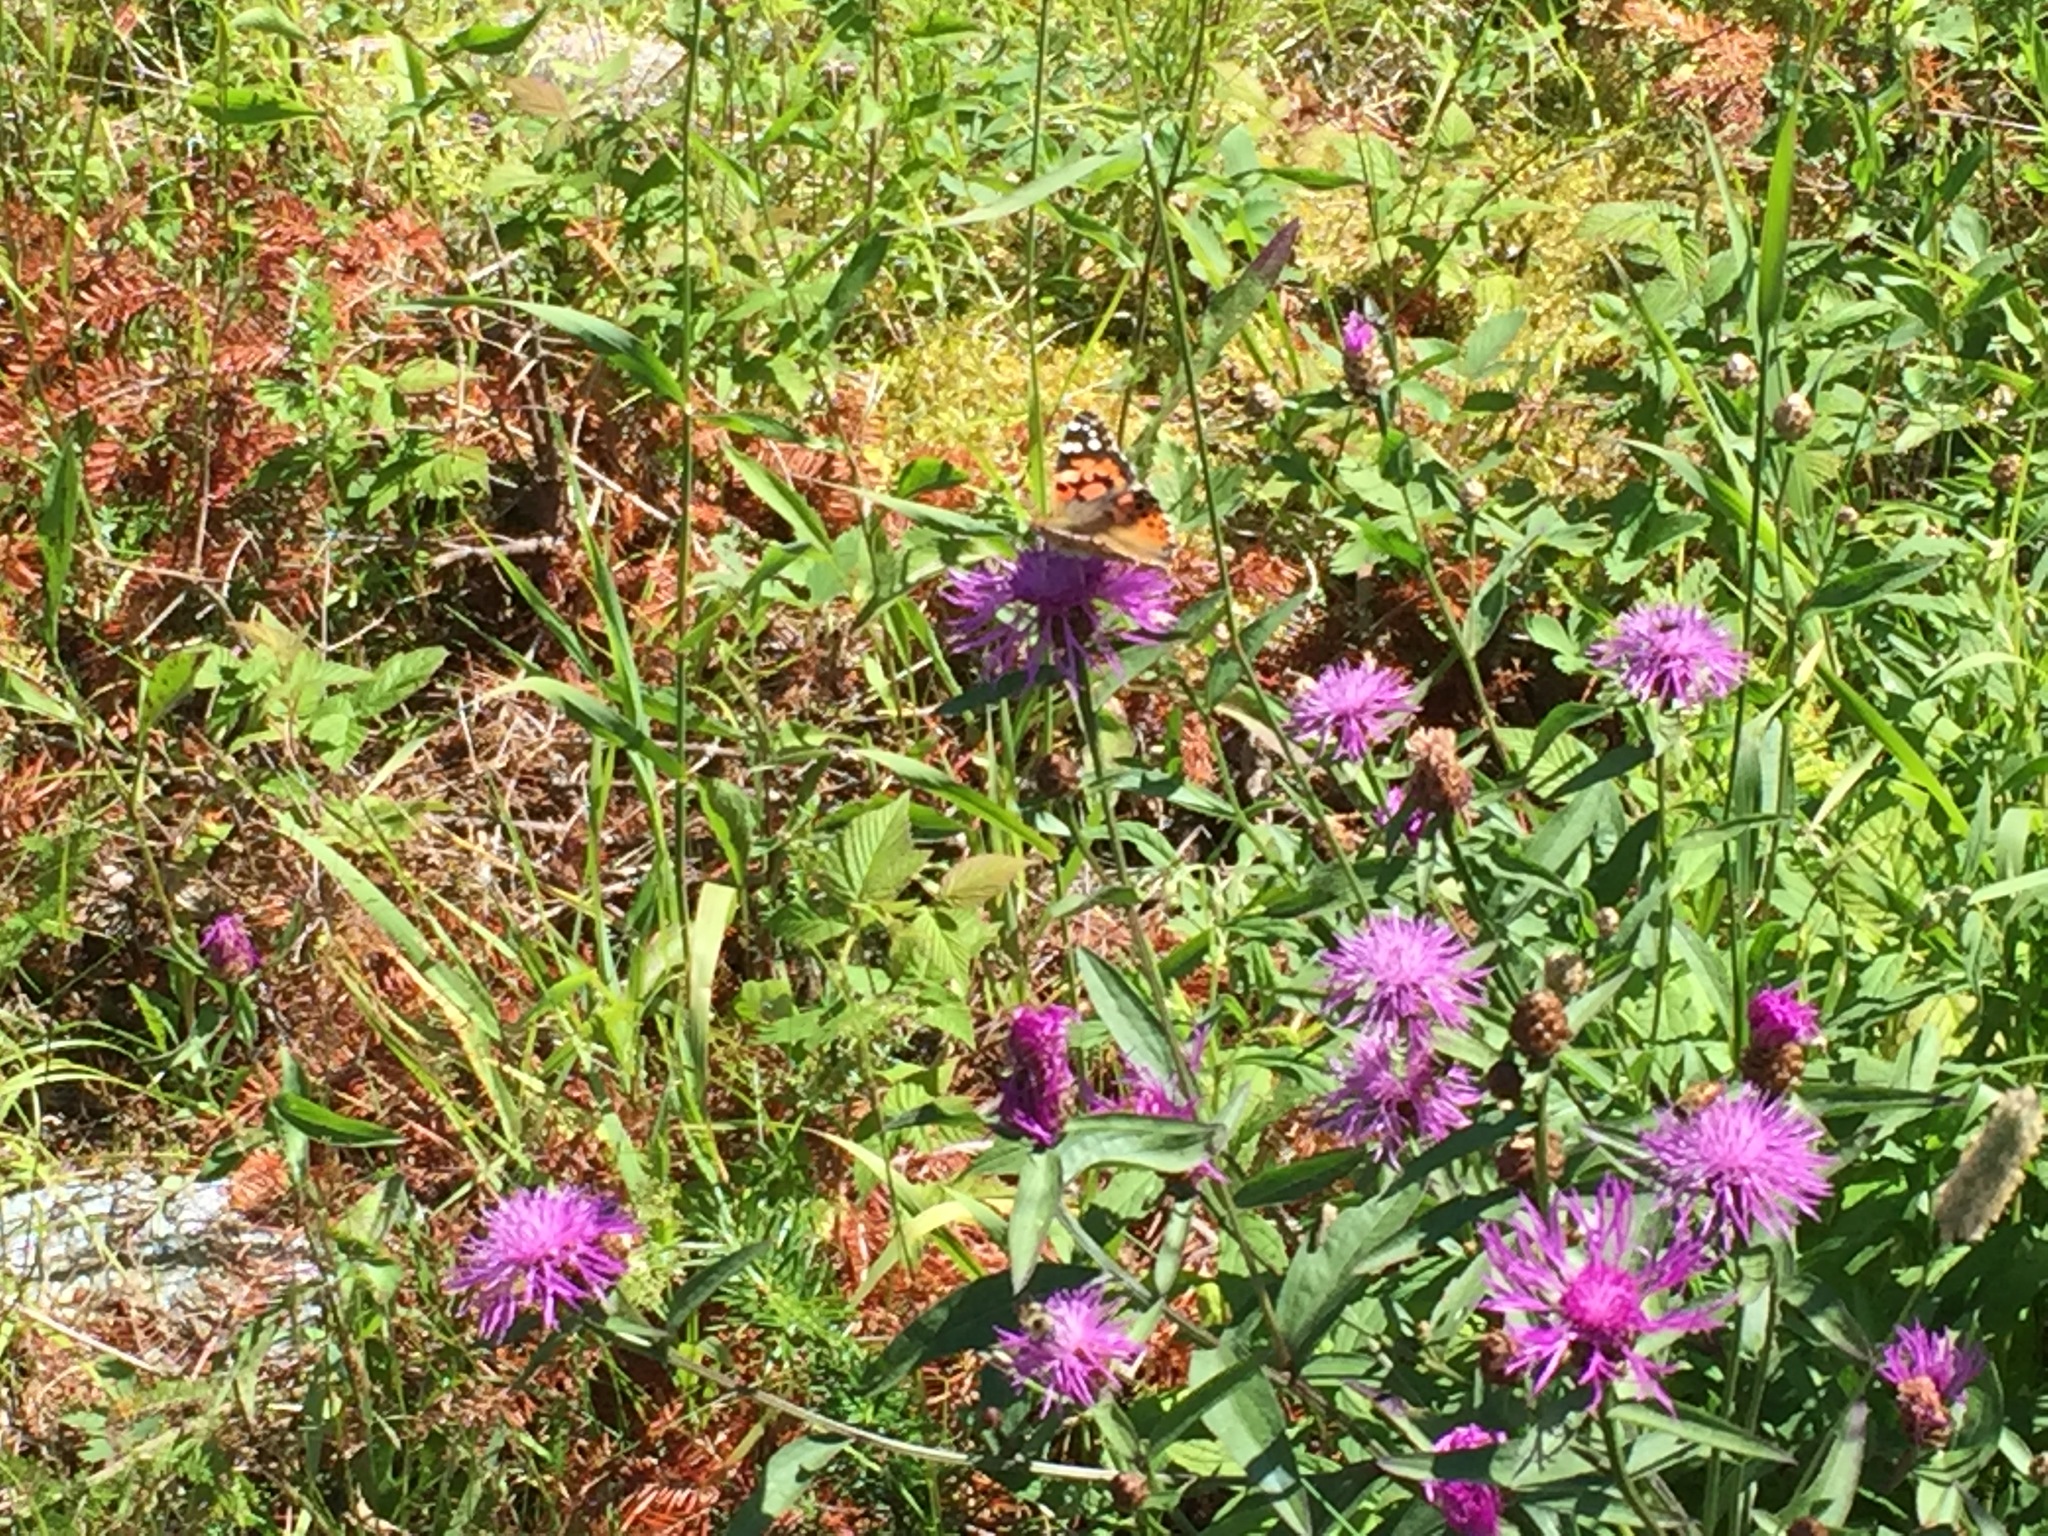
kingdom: Animalia
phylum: Arthropoda
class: Insecta
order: Lepidoptera
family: Nymphalidae
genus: Vanessa
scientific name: Vanessa cardui
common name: Painted lady
